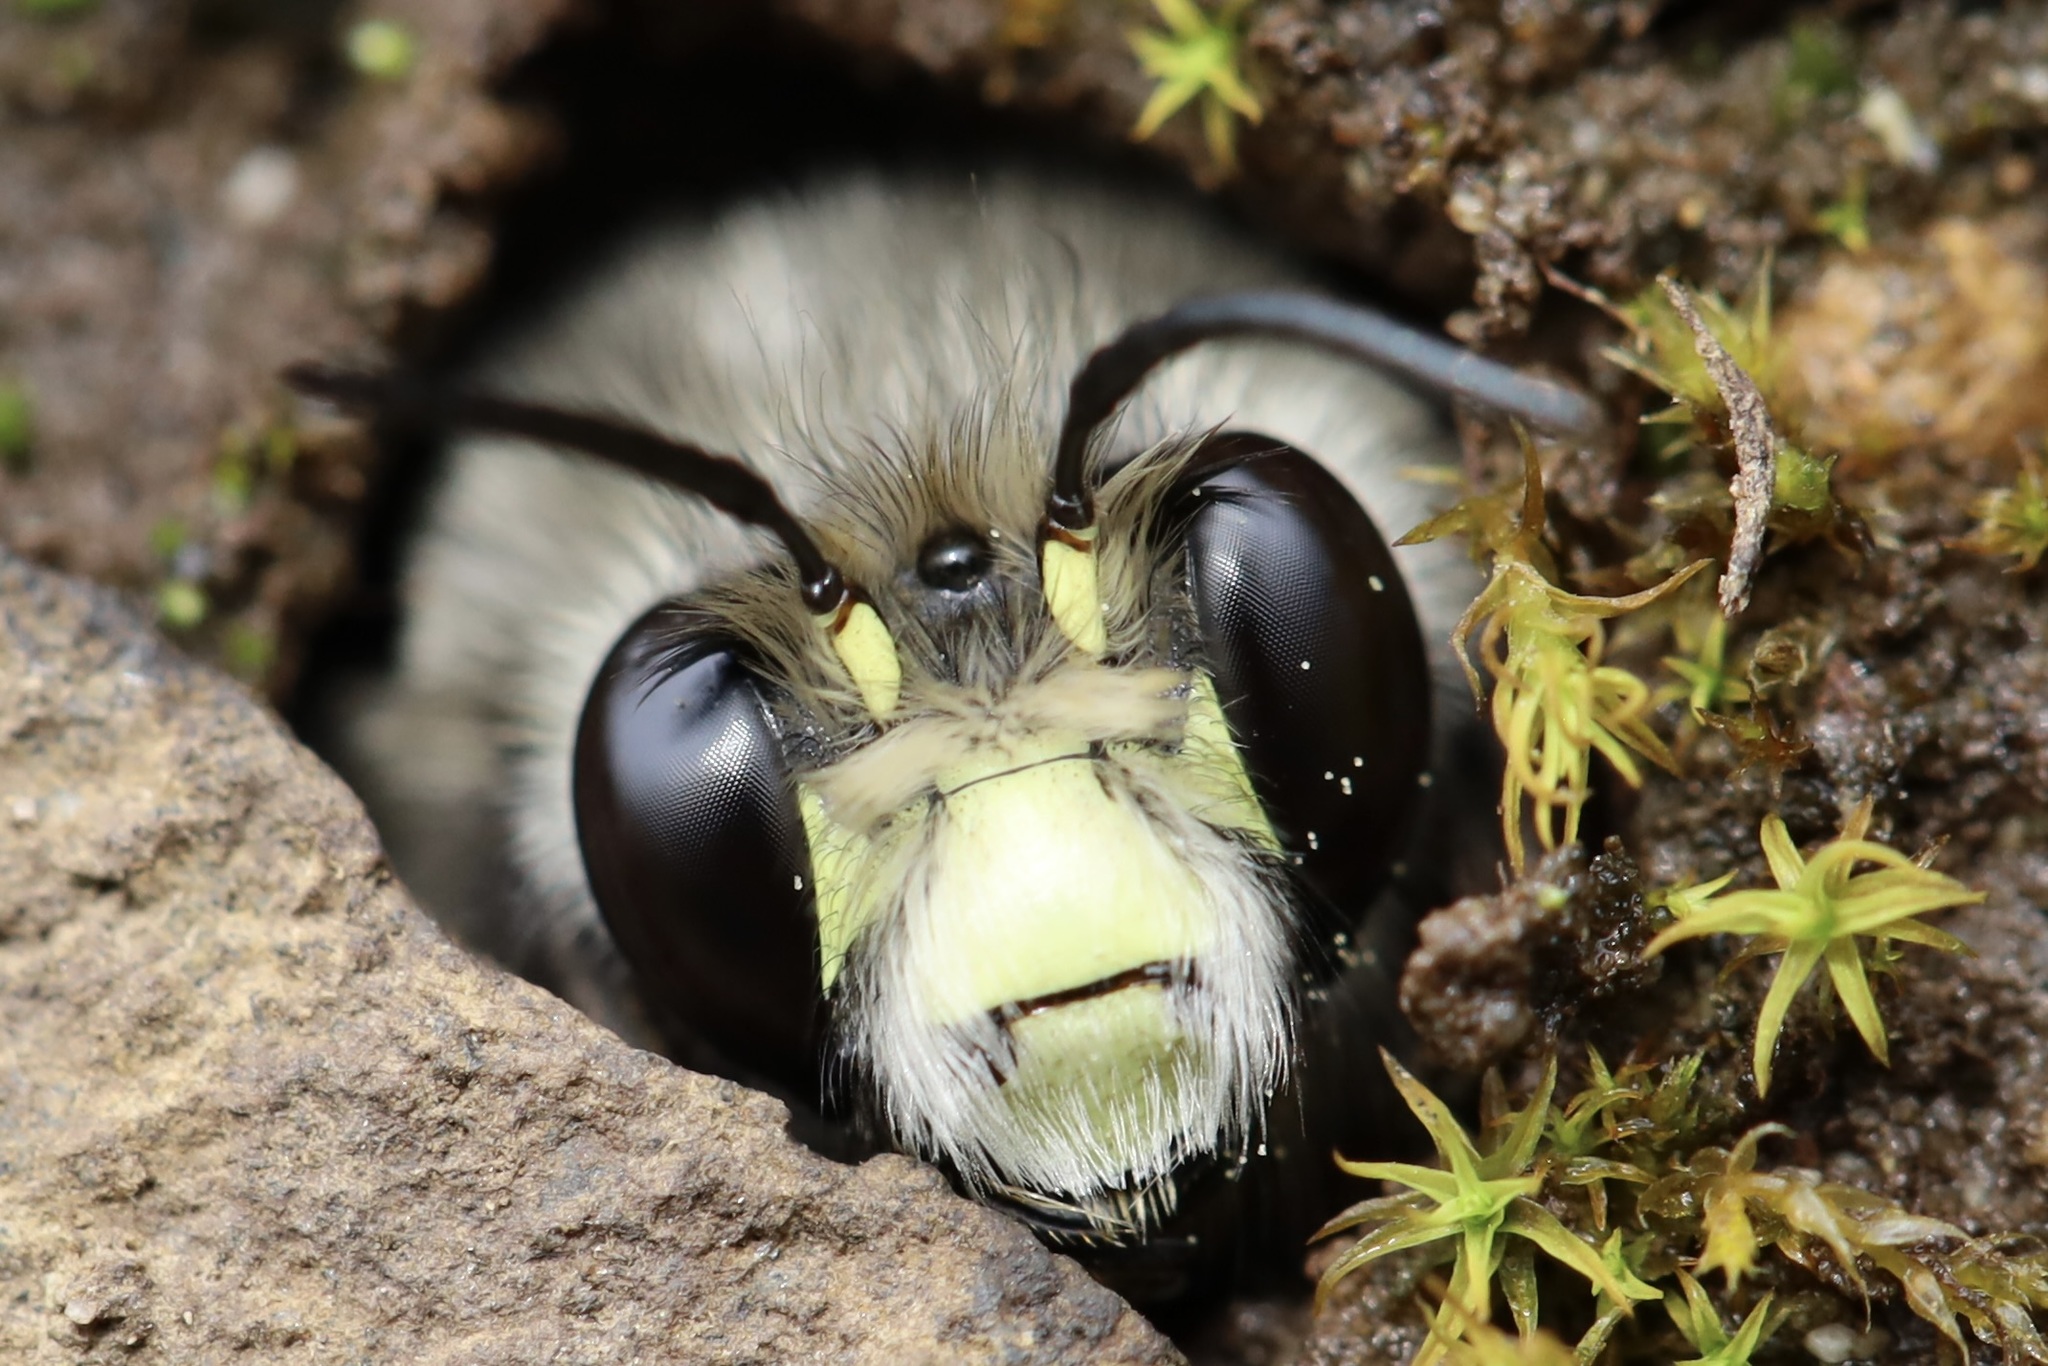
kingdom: Animalia
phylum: Arthropoda
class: Insecta
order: Hymenoptera
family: Apidae
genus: Anthophora
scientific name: Anthophora pacifica
